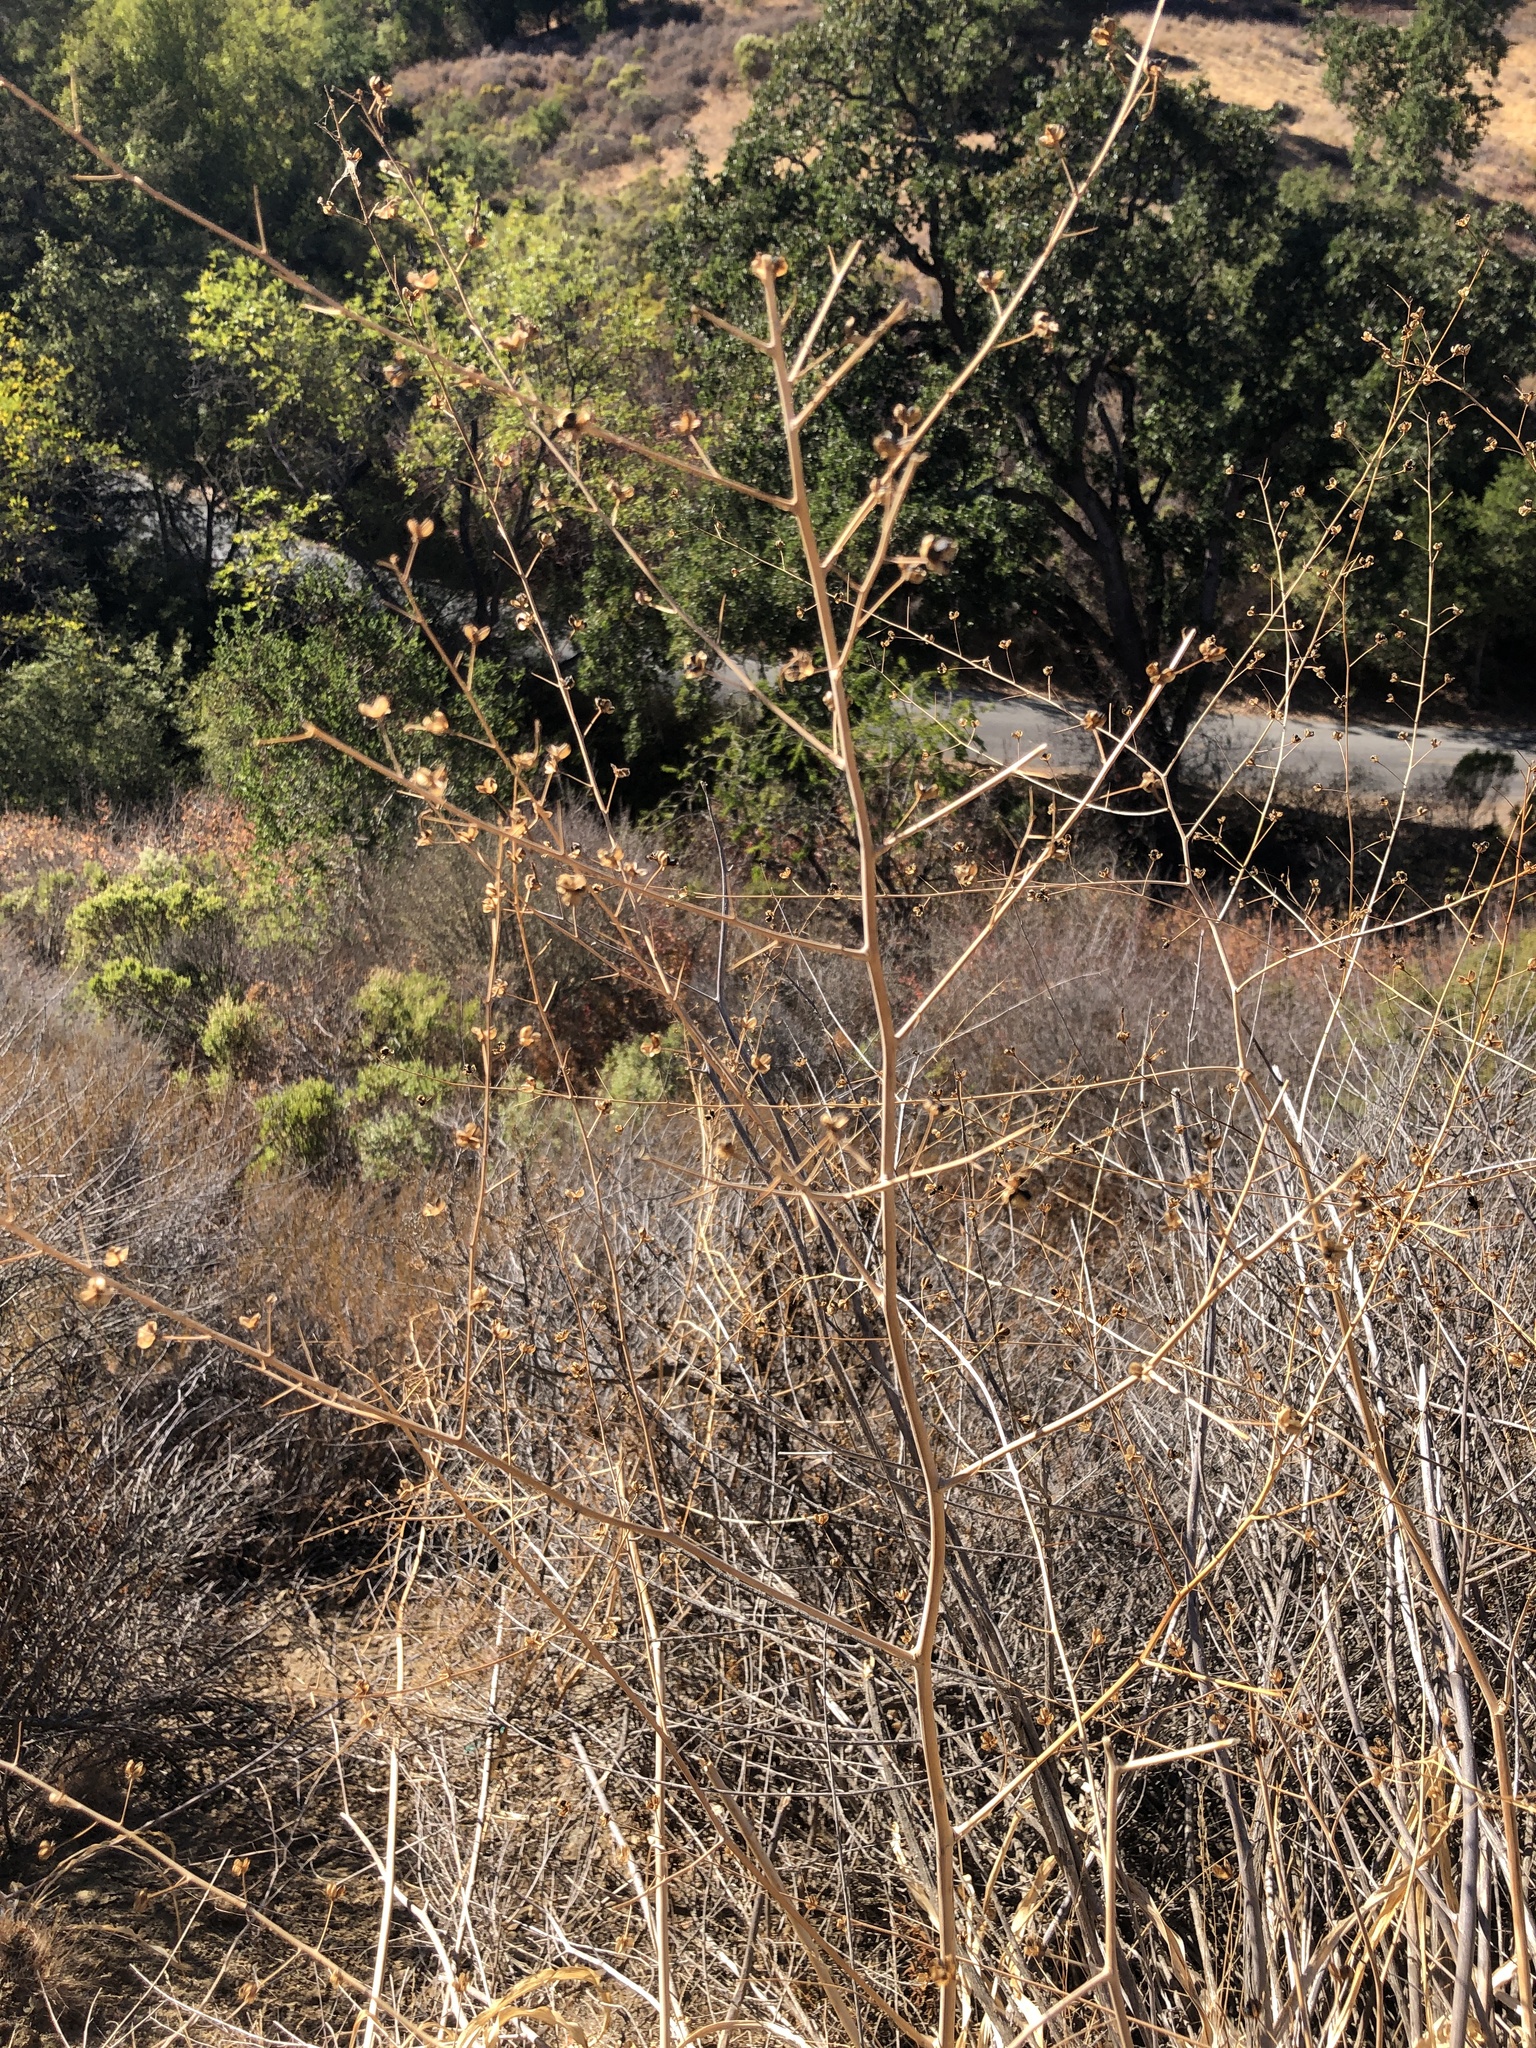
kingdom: Plantae
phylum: Tracheophyta
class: Liliopsida
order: Asparagales
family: Asparagaceae
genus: Chlorogalum
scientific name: Chlorogalum pomeridianum
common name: Amole
